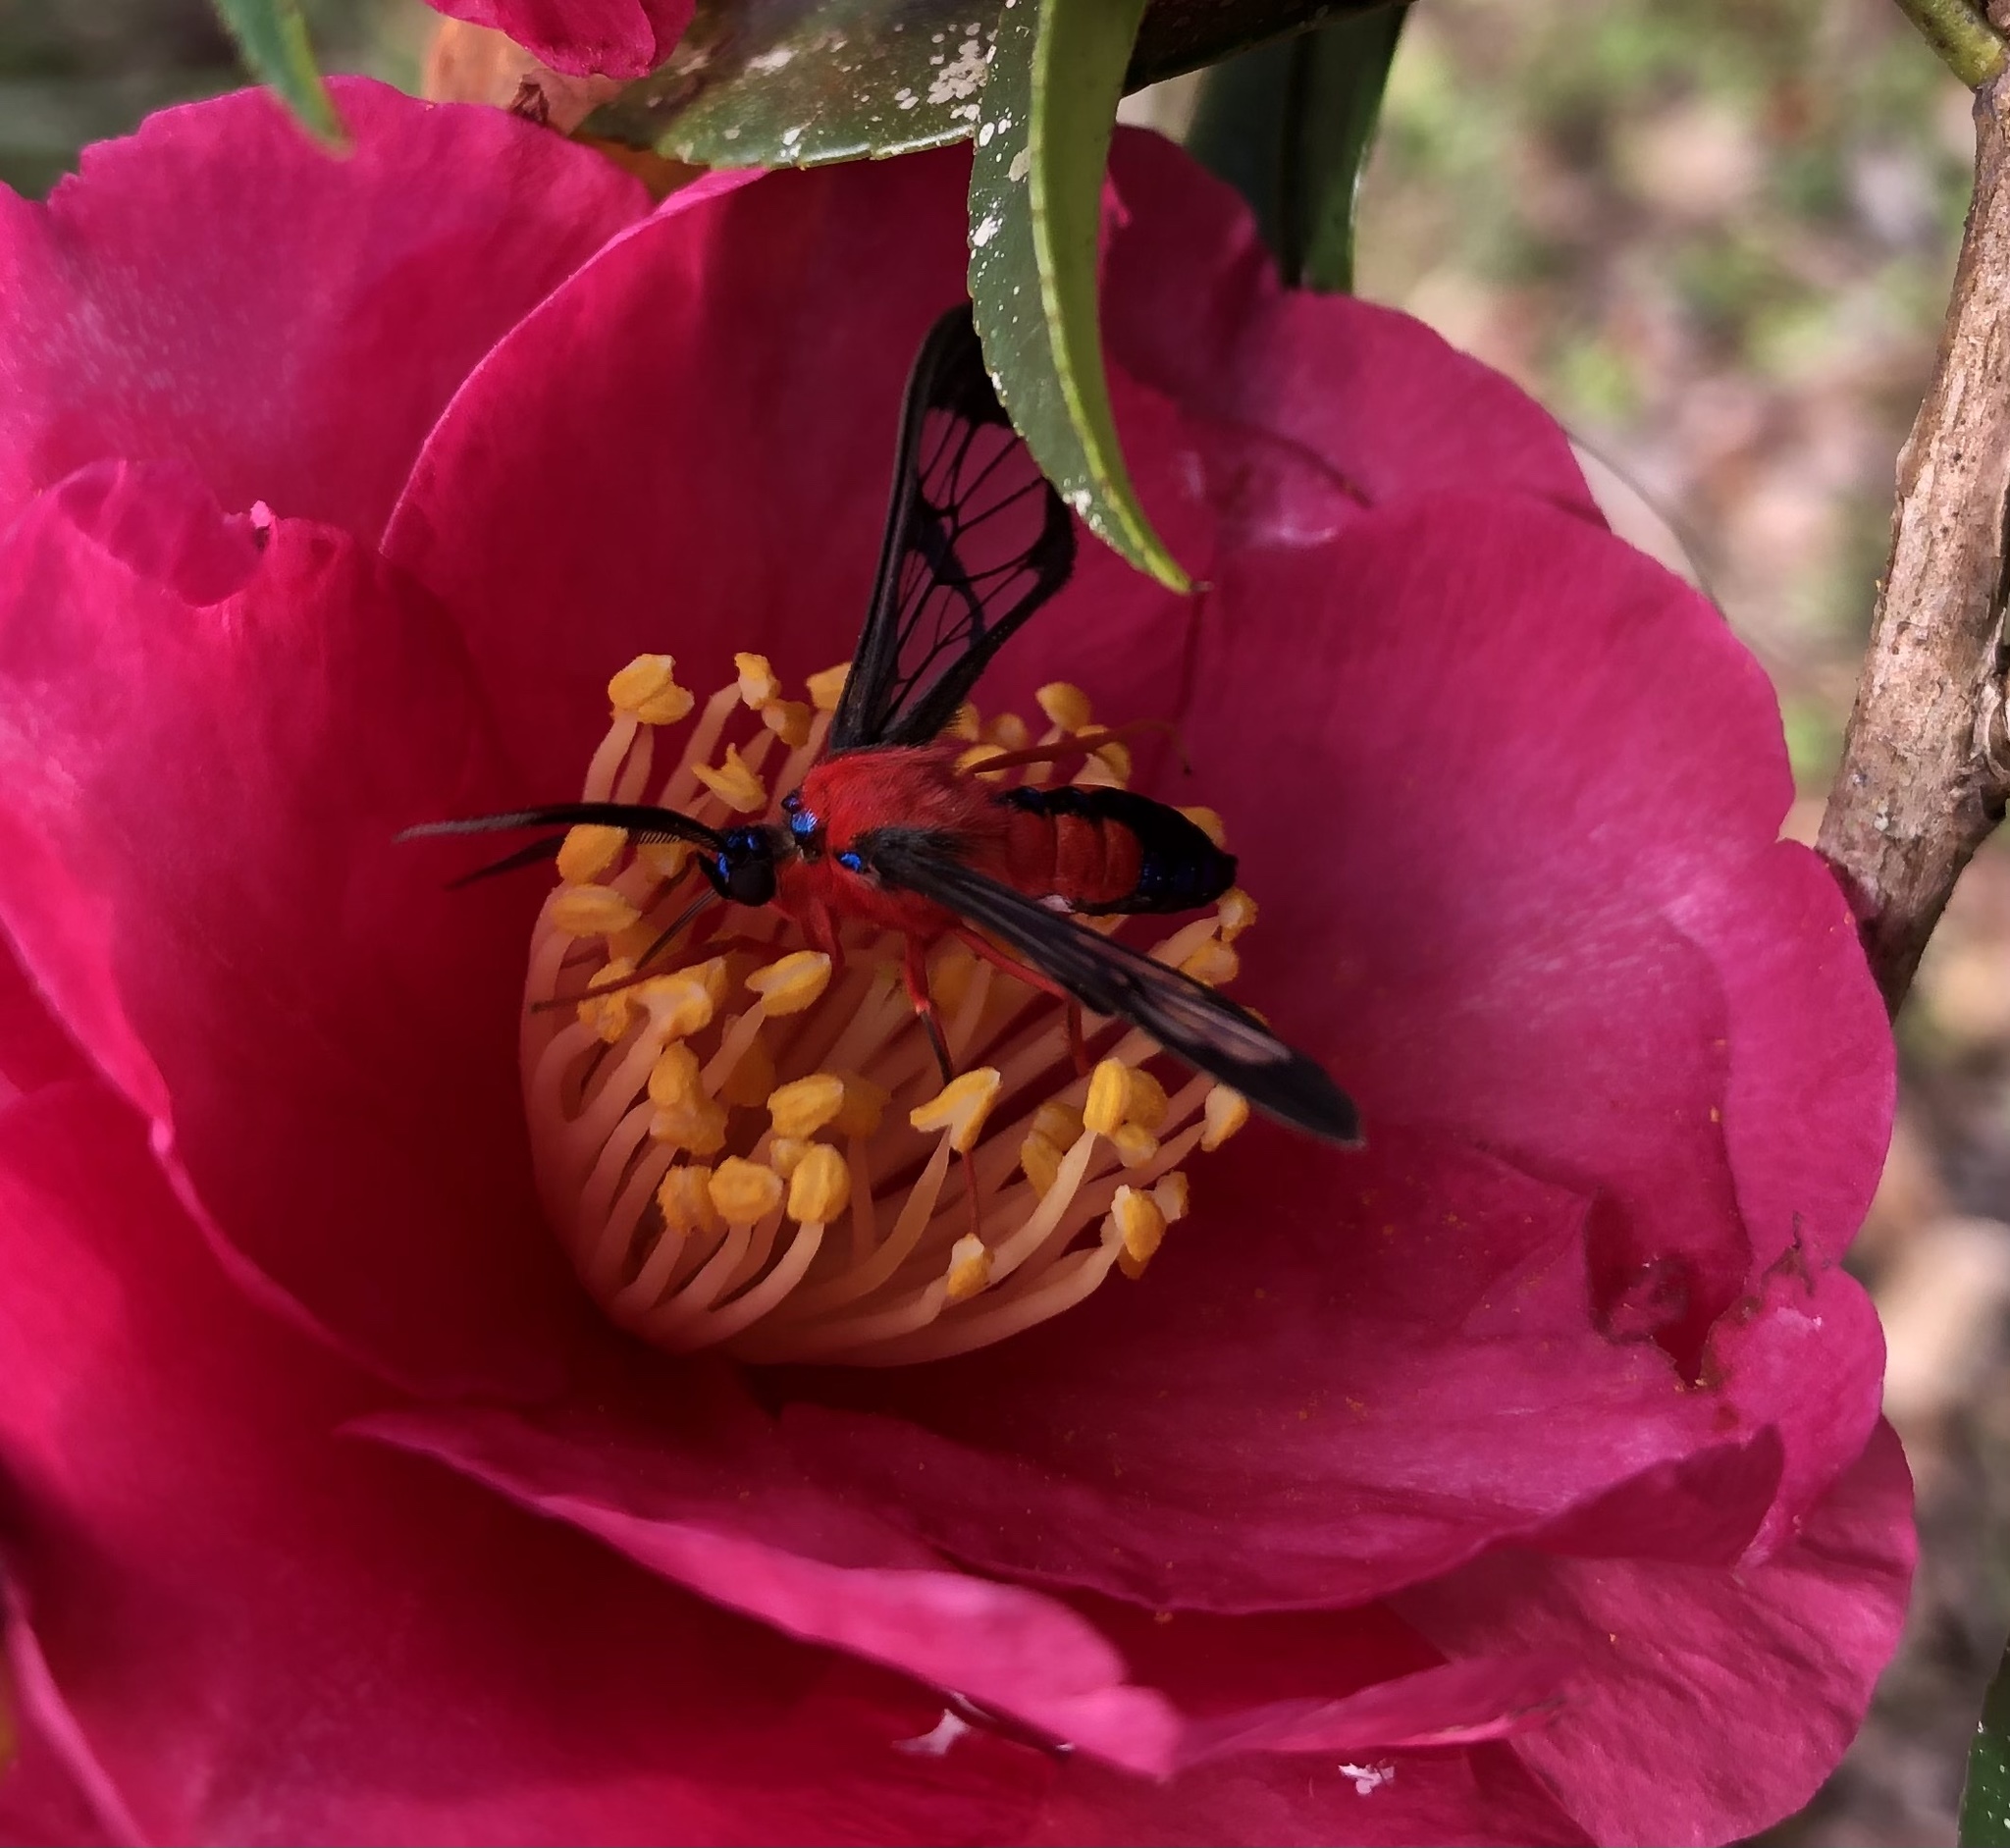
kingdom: Animalia
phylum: Arthropoda
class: Insecta
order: Lepidoptera
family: Erebidae
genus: Cosmosoma
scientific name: Cosmosoma myrodora
